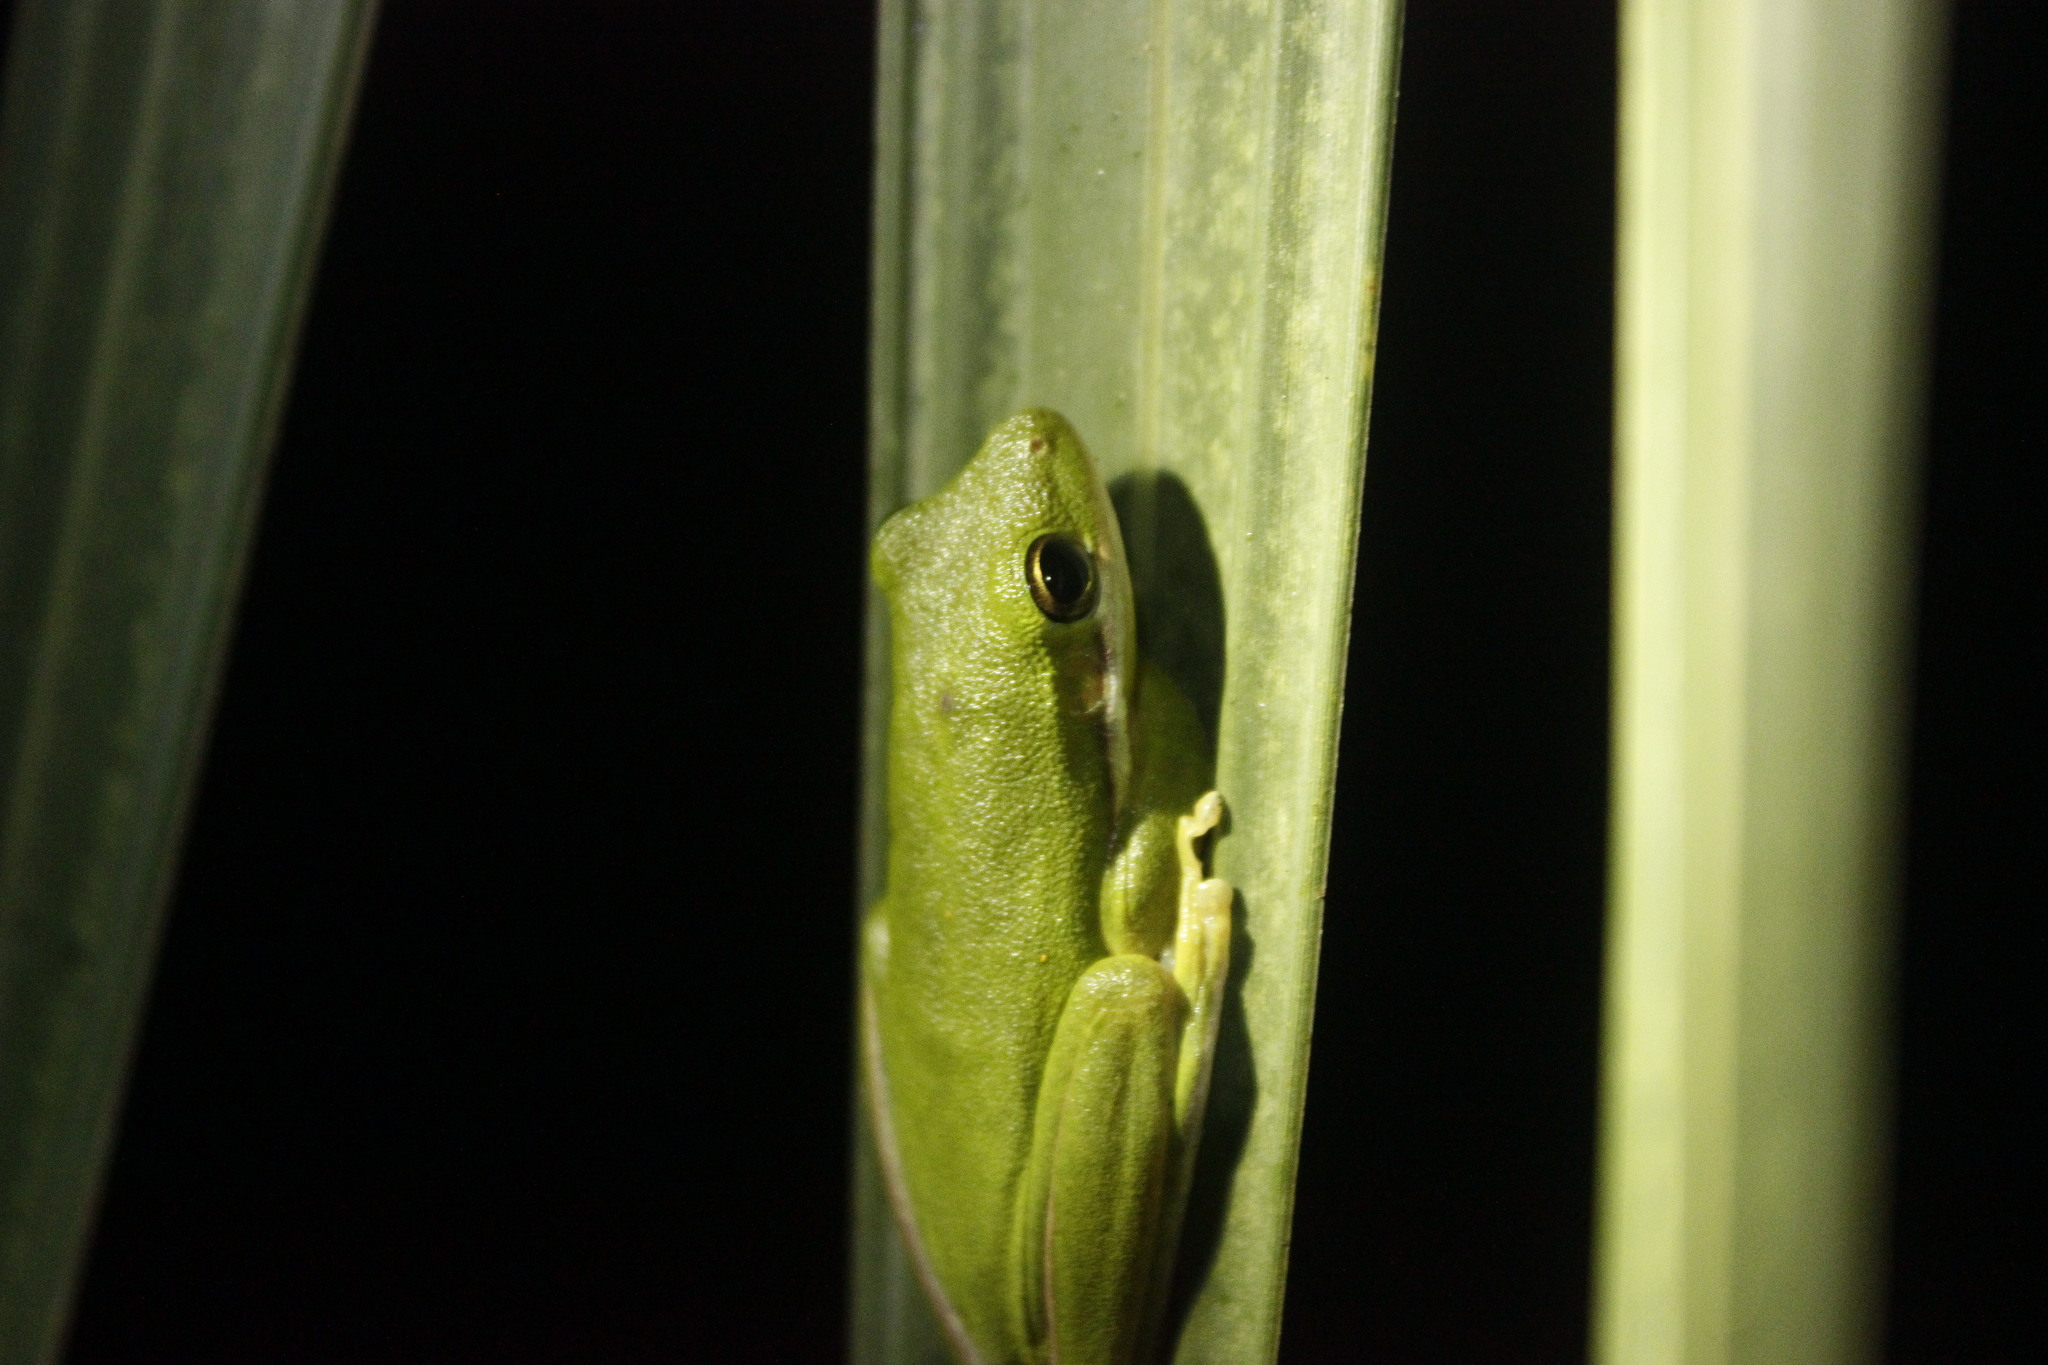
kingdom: Animalia
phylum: Chordata
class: Amphibia
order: Anura
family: Hylidae
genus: Dryophytes
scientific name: Dryophytes cinereus
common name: Green treefrog
